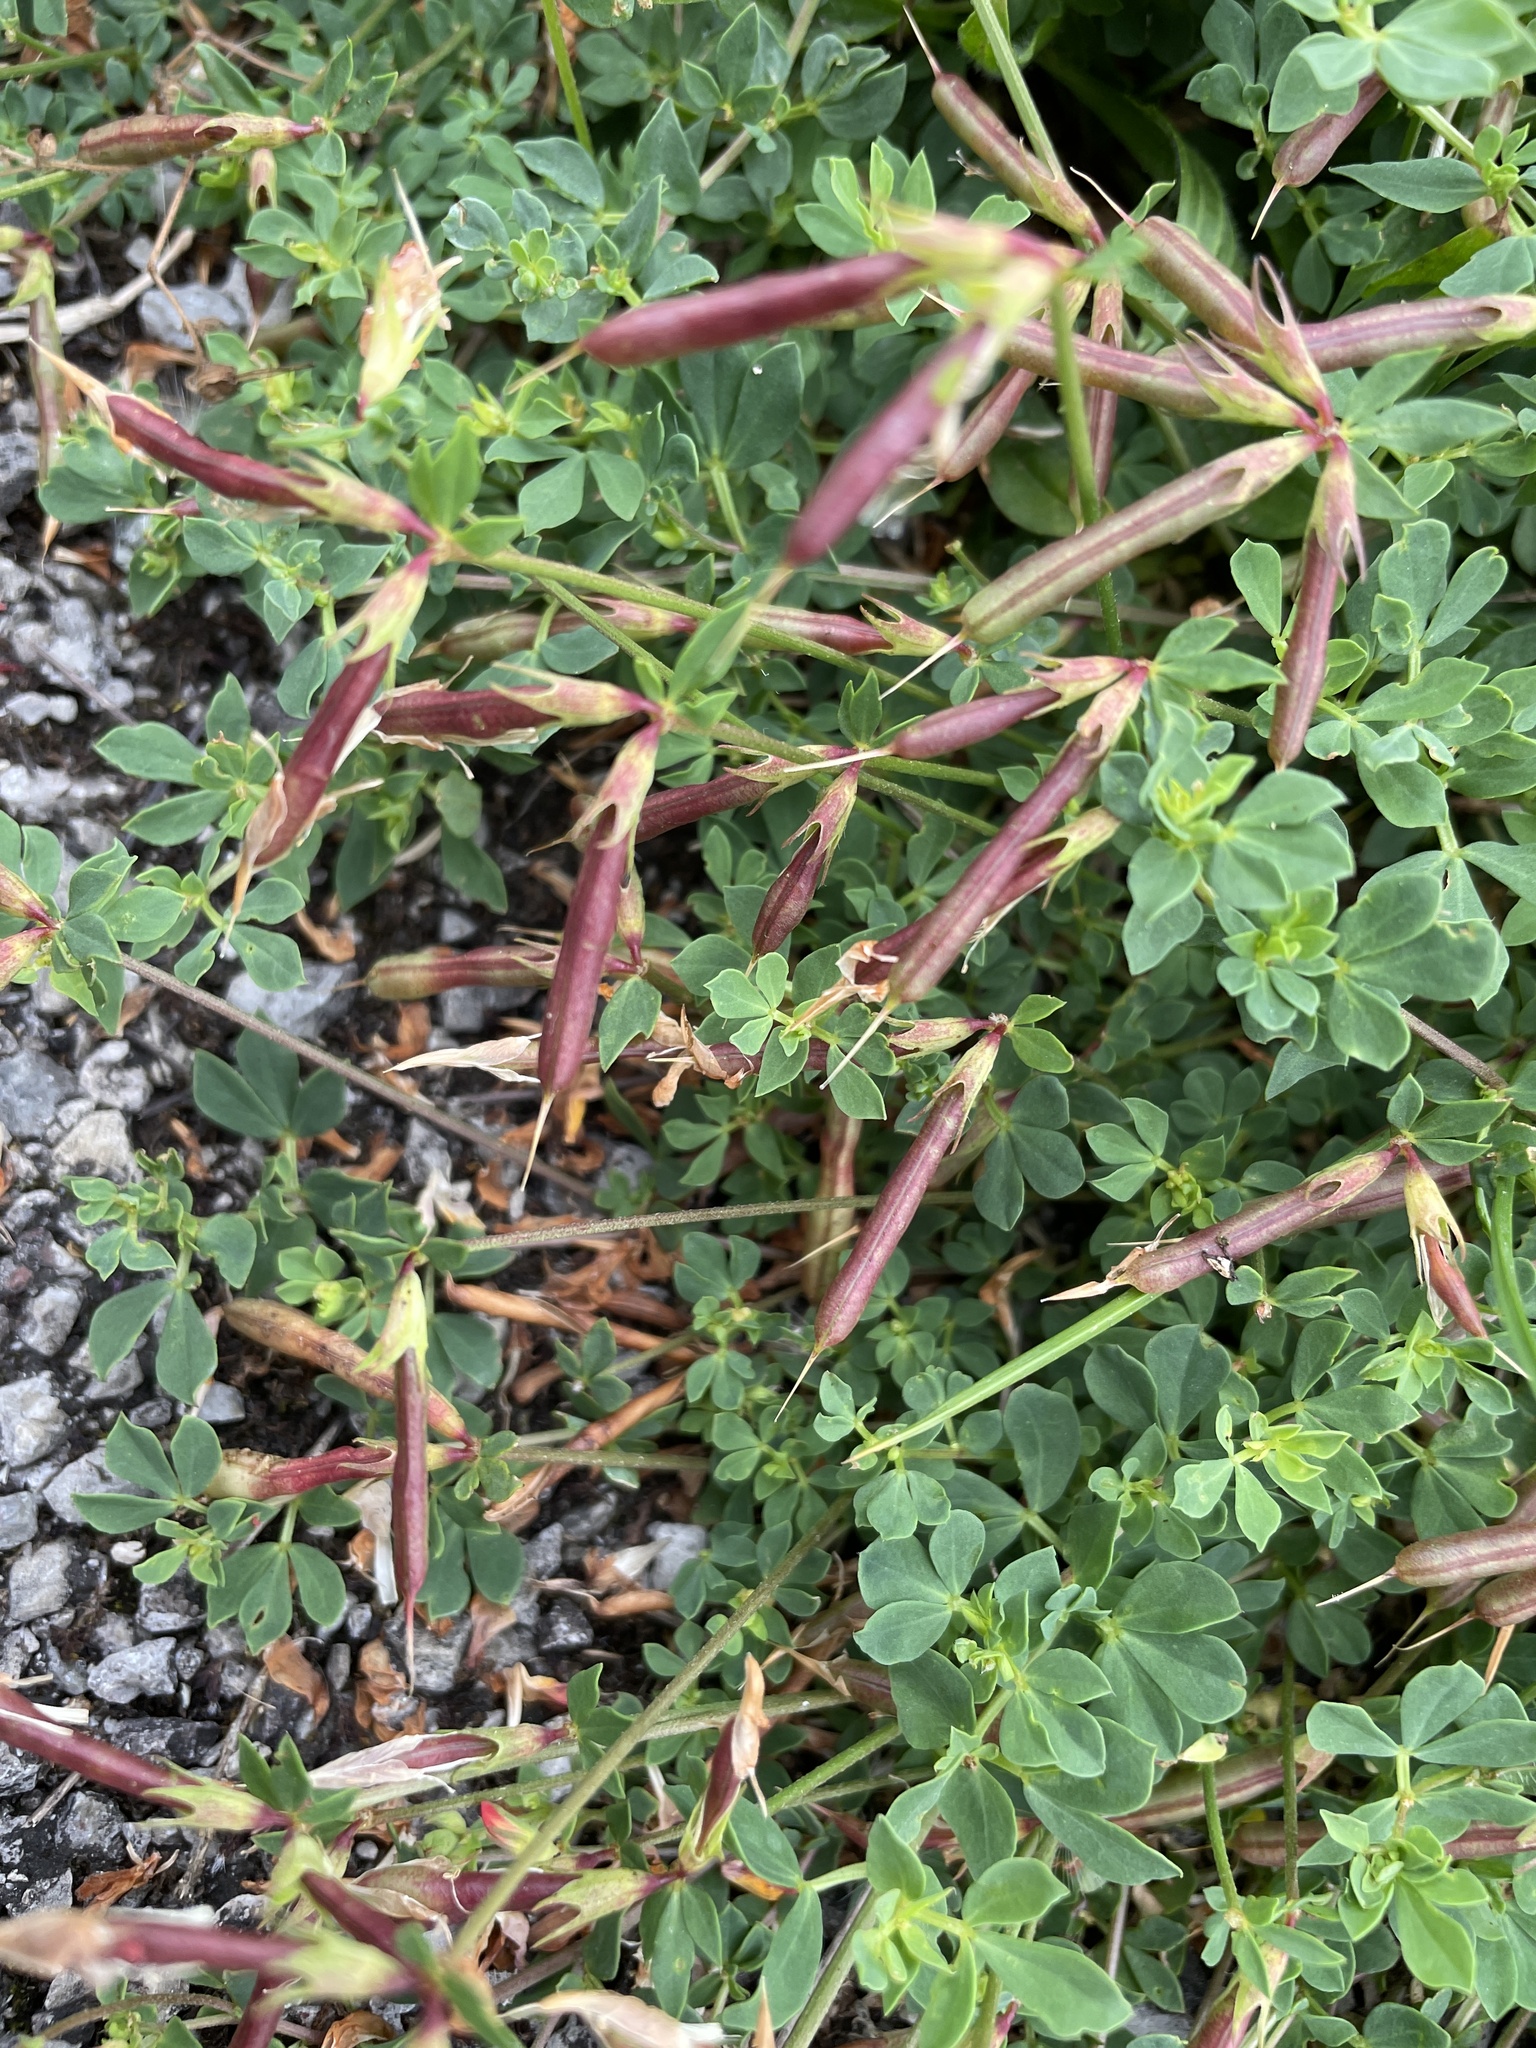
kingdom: Plantae
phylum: Tracheophyta
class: Magnoliopsida
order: Fabales
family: Fabaceae
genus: Lotus
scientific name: Lotus corniculatus
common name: Common bird's-foot-trefoil
